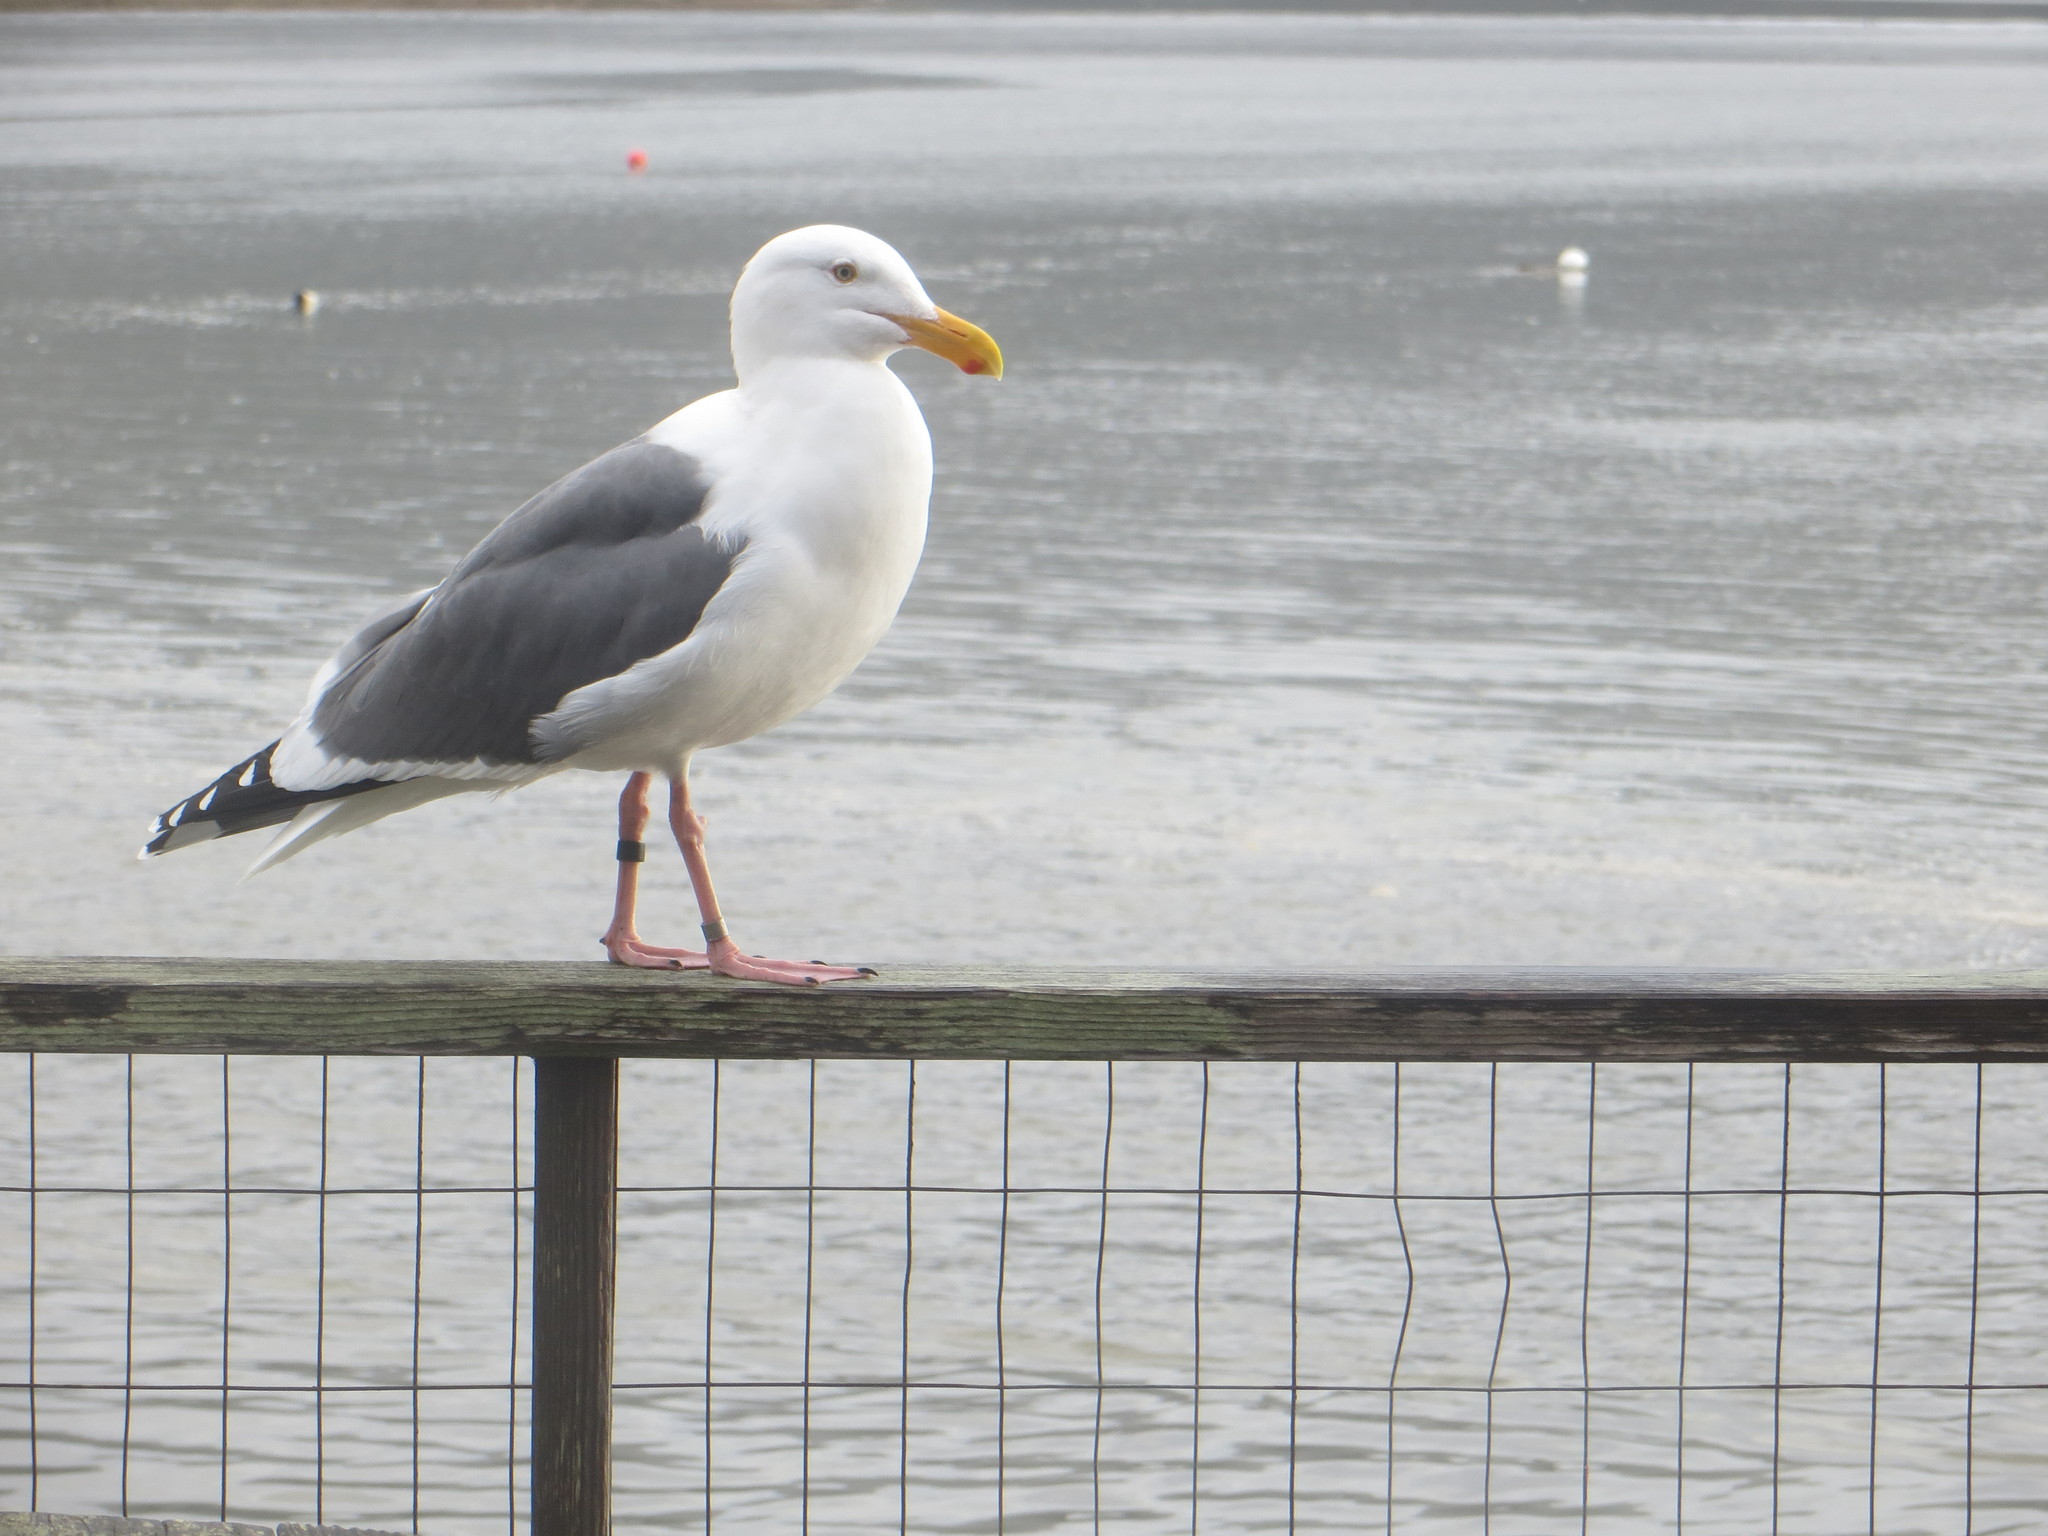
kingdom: Animalia
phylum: Chordata
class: Aves
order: Charadriiformes
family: Laridae
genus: Larus
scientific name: Larus occidentalis
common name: Western gull
